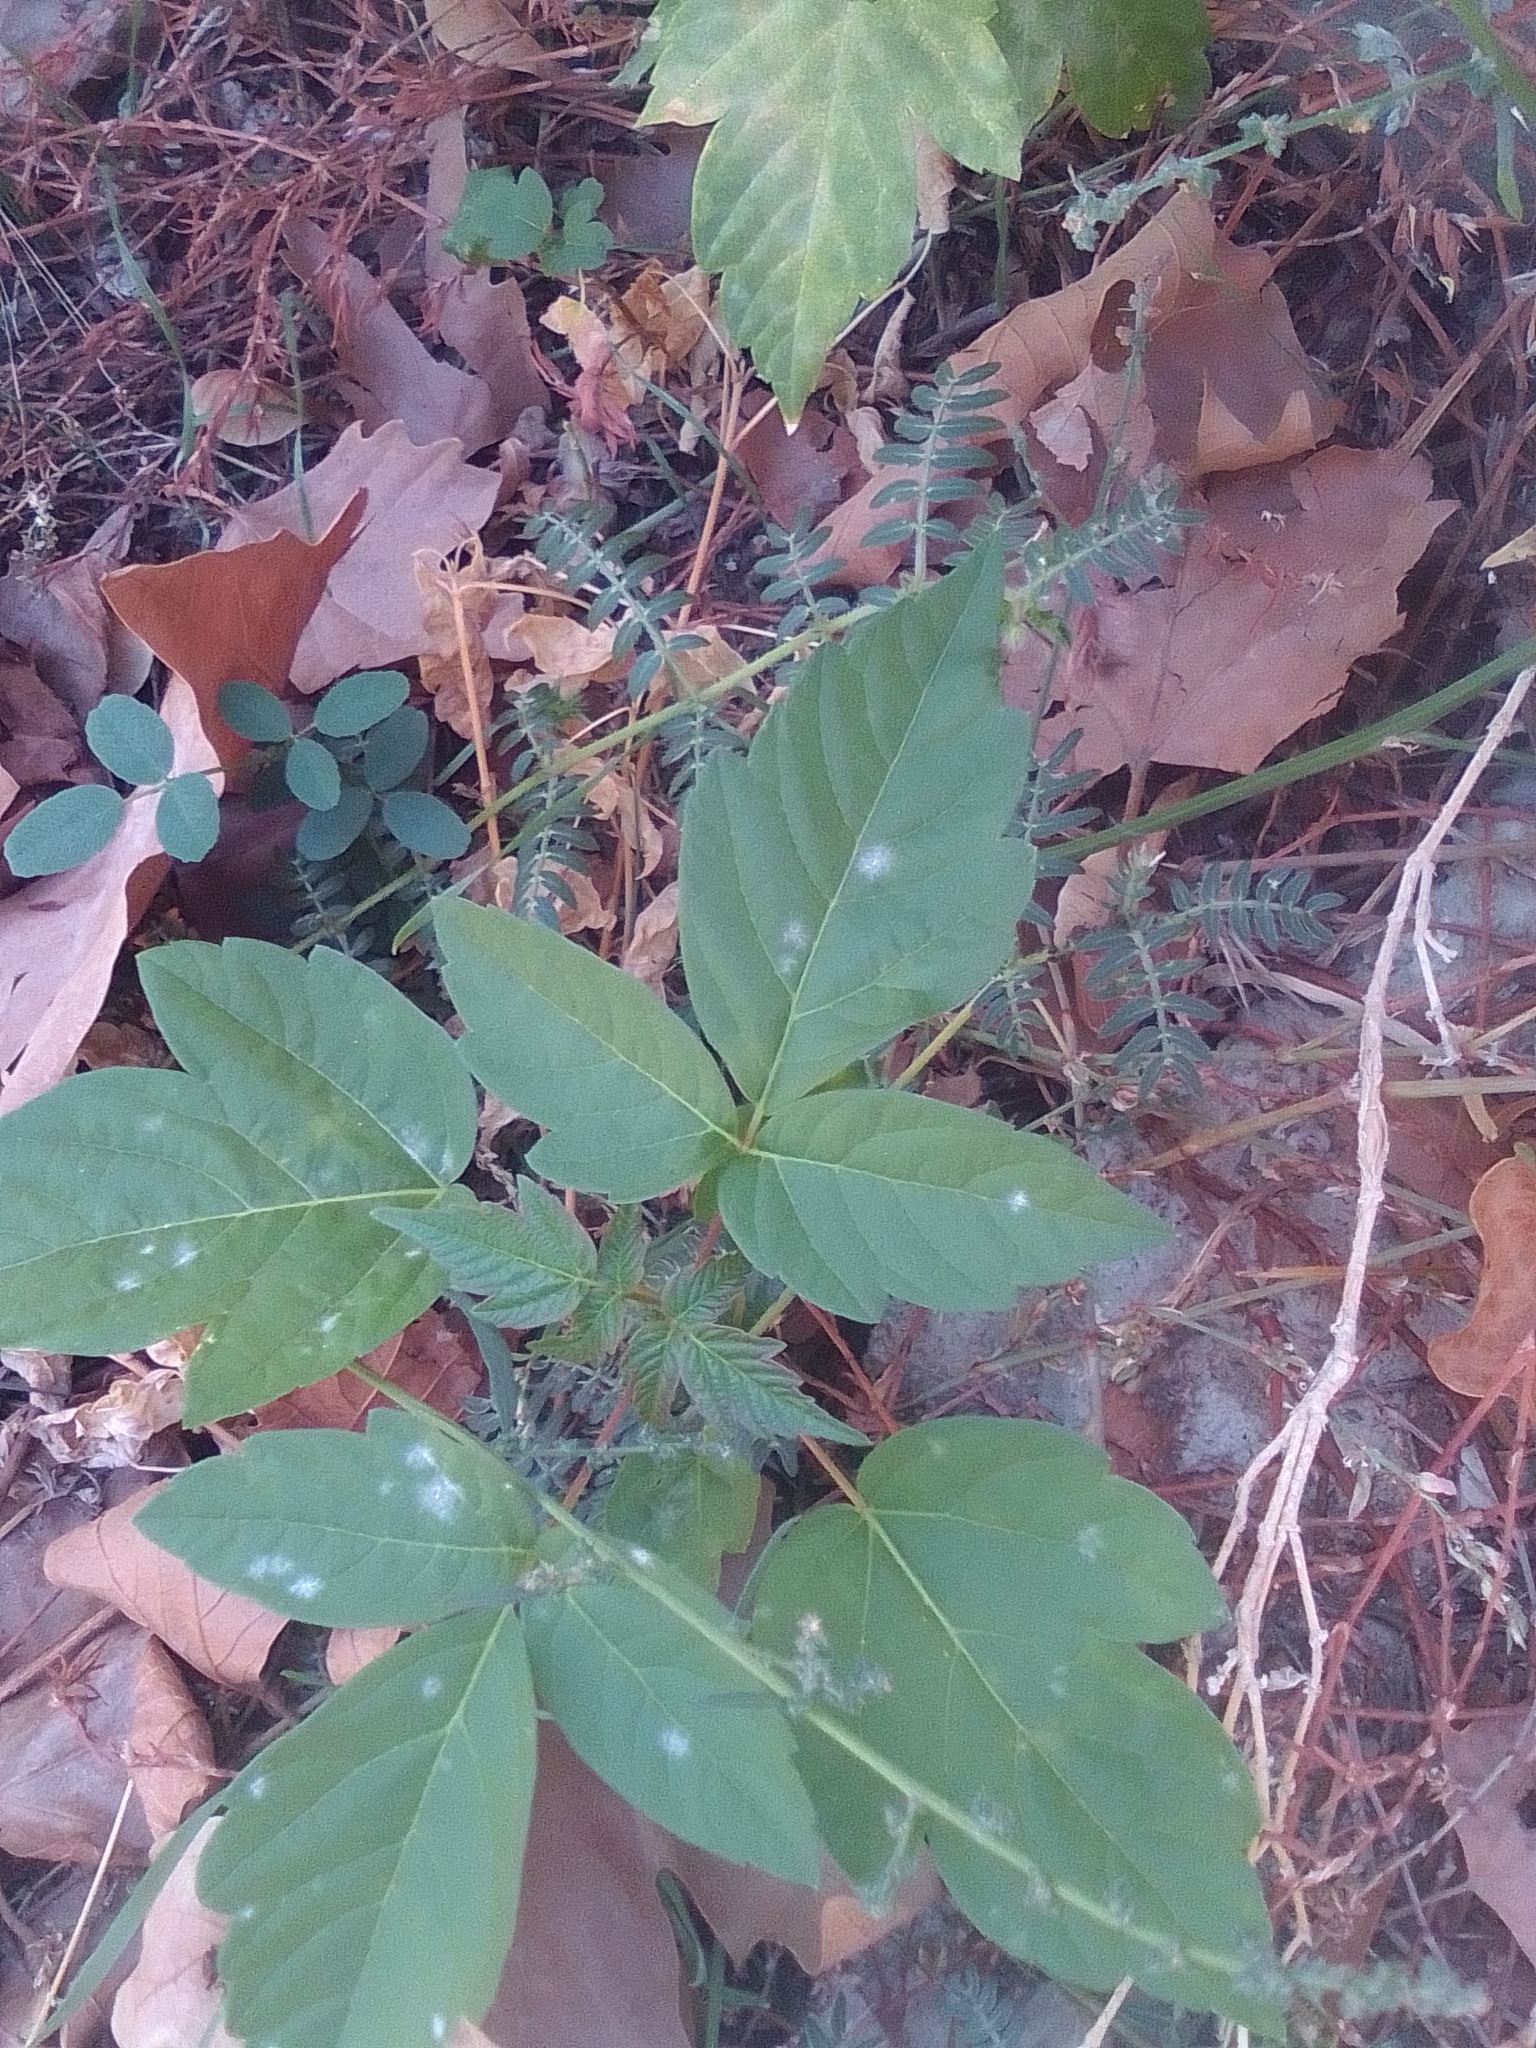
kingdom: Plantae
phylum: Tracheophyta
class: Magnoliopsida
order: Sapindales
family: Sapindaceae
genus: Acer
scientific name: Acer negundo
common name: Ashleaf maple
